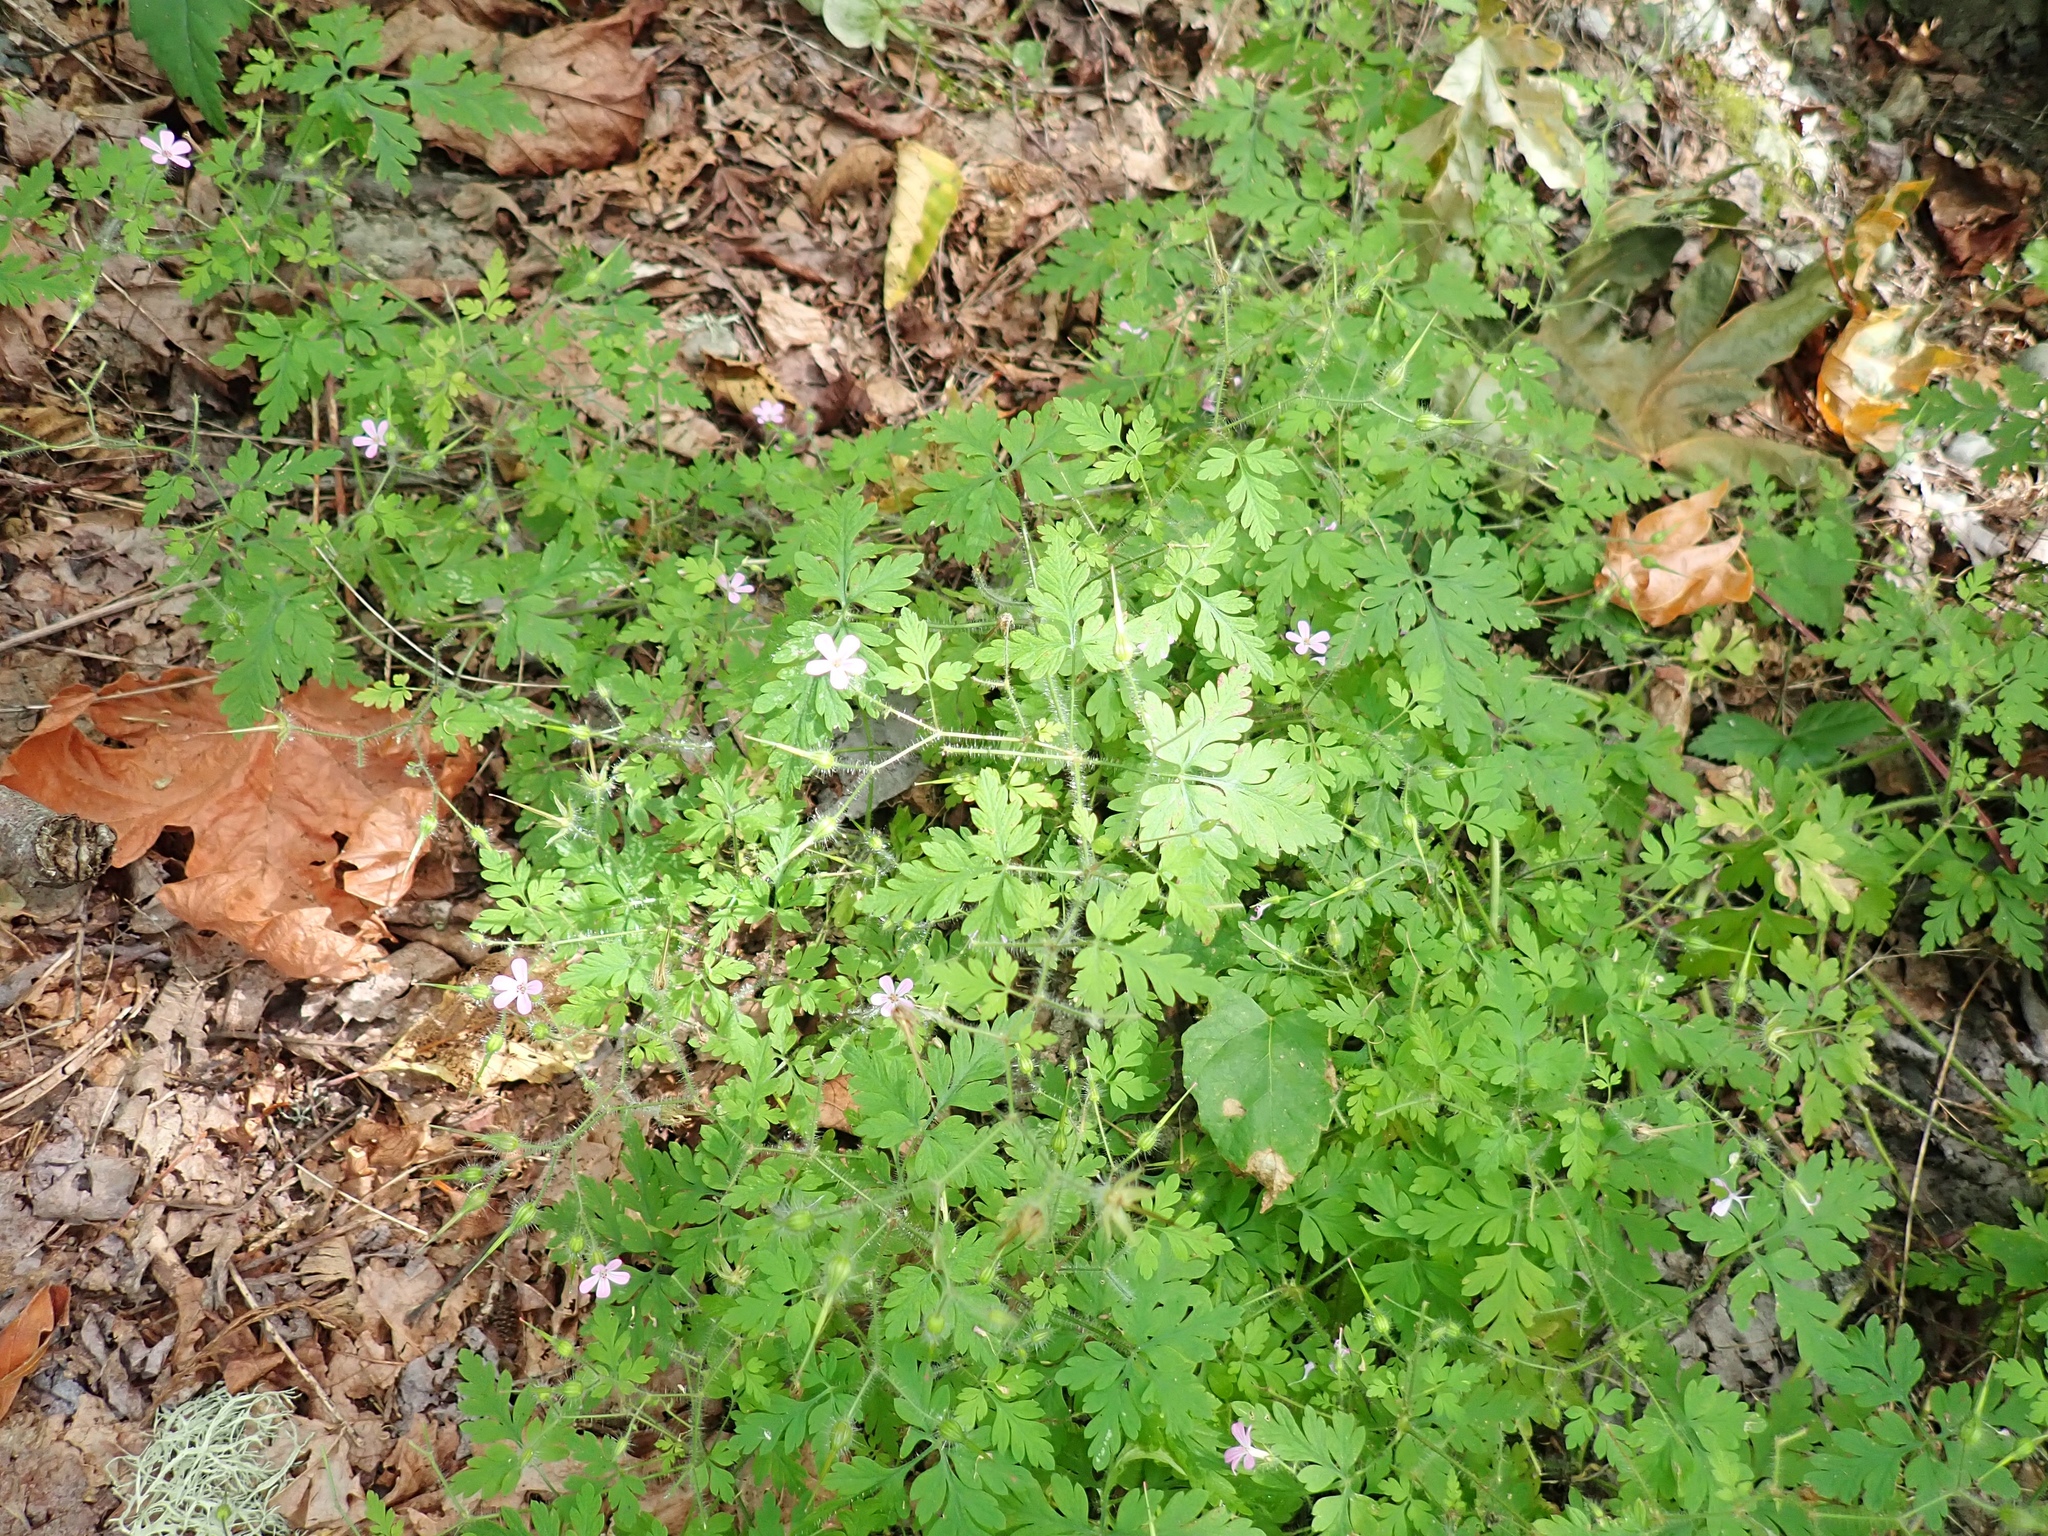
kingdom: Plantae
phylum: Tracheophyta
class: Magnoliopsida
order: Geraniales
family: Geraniaceae
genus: Geranium
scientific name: Geranium robertianum
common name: Herb-robert
